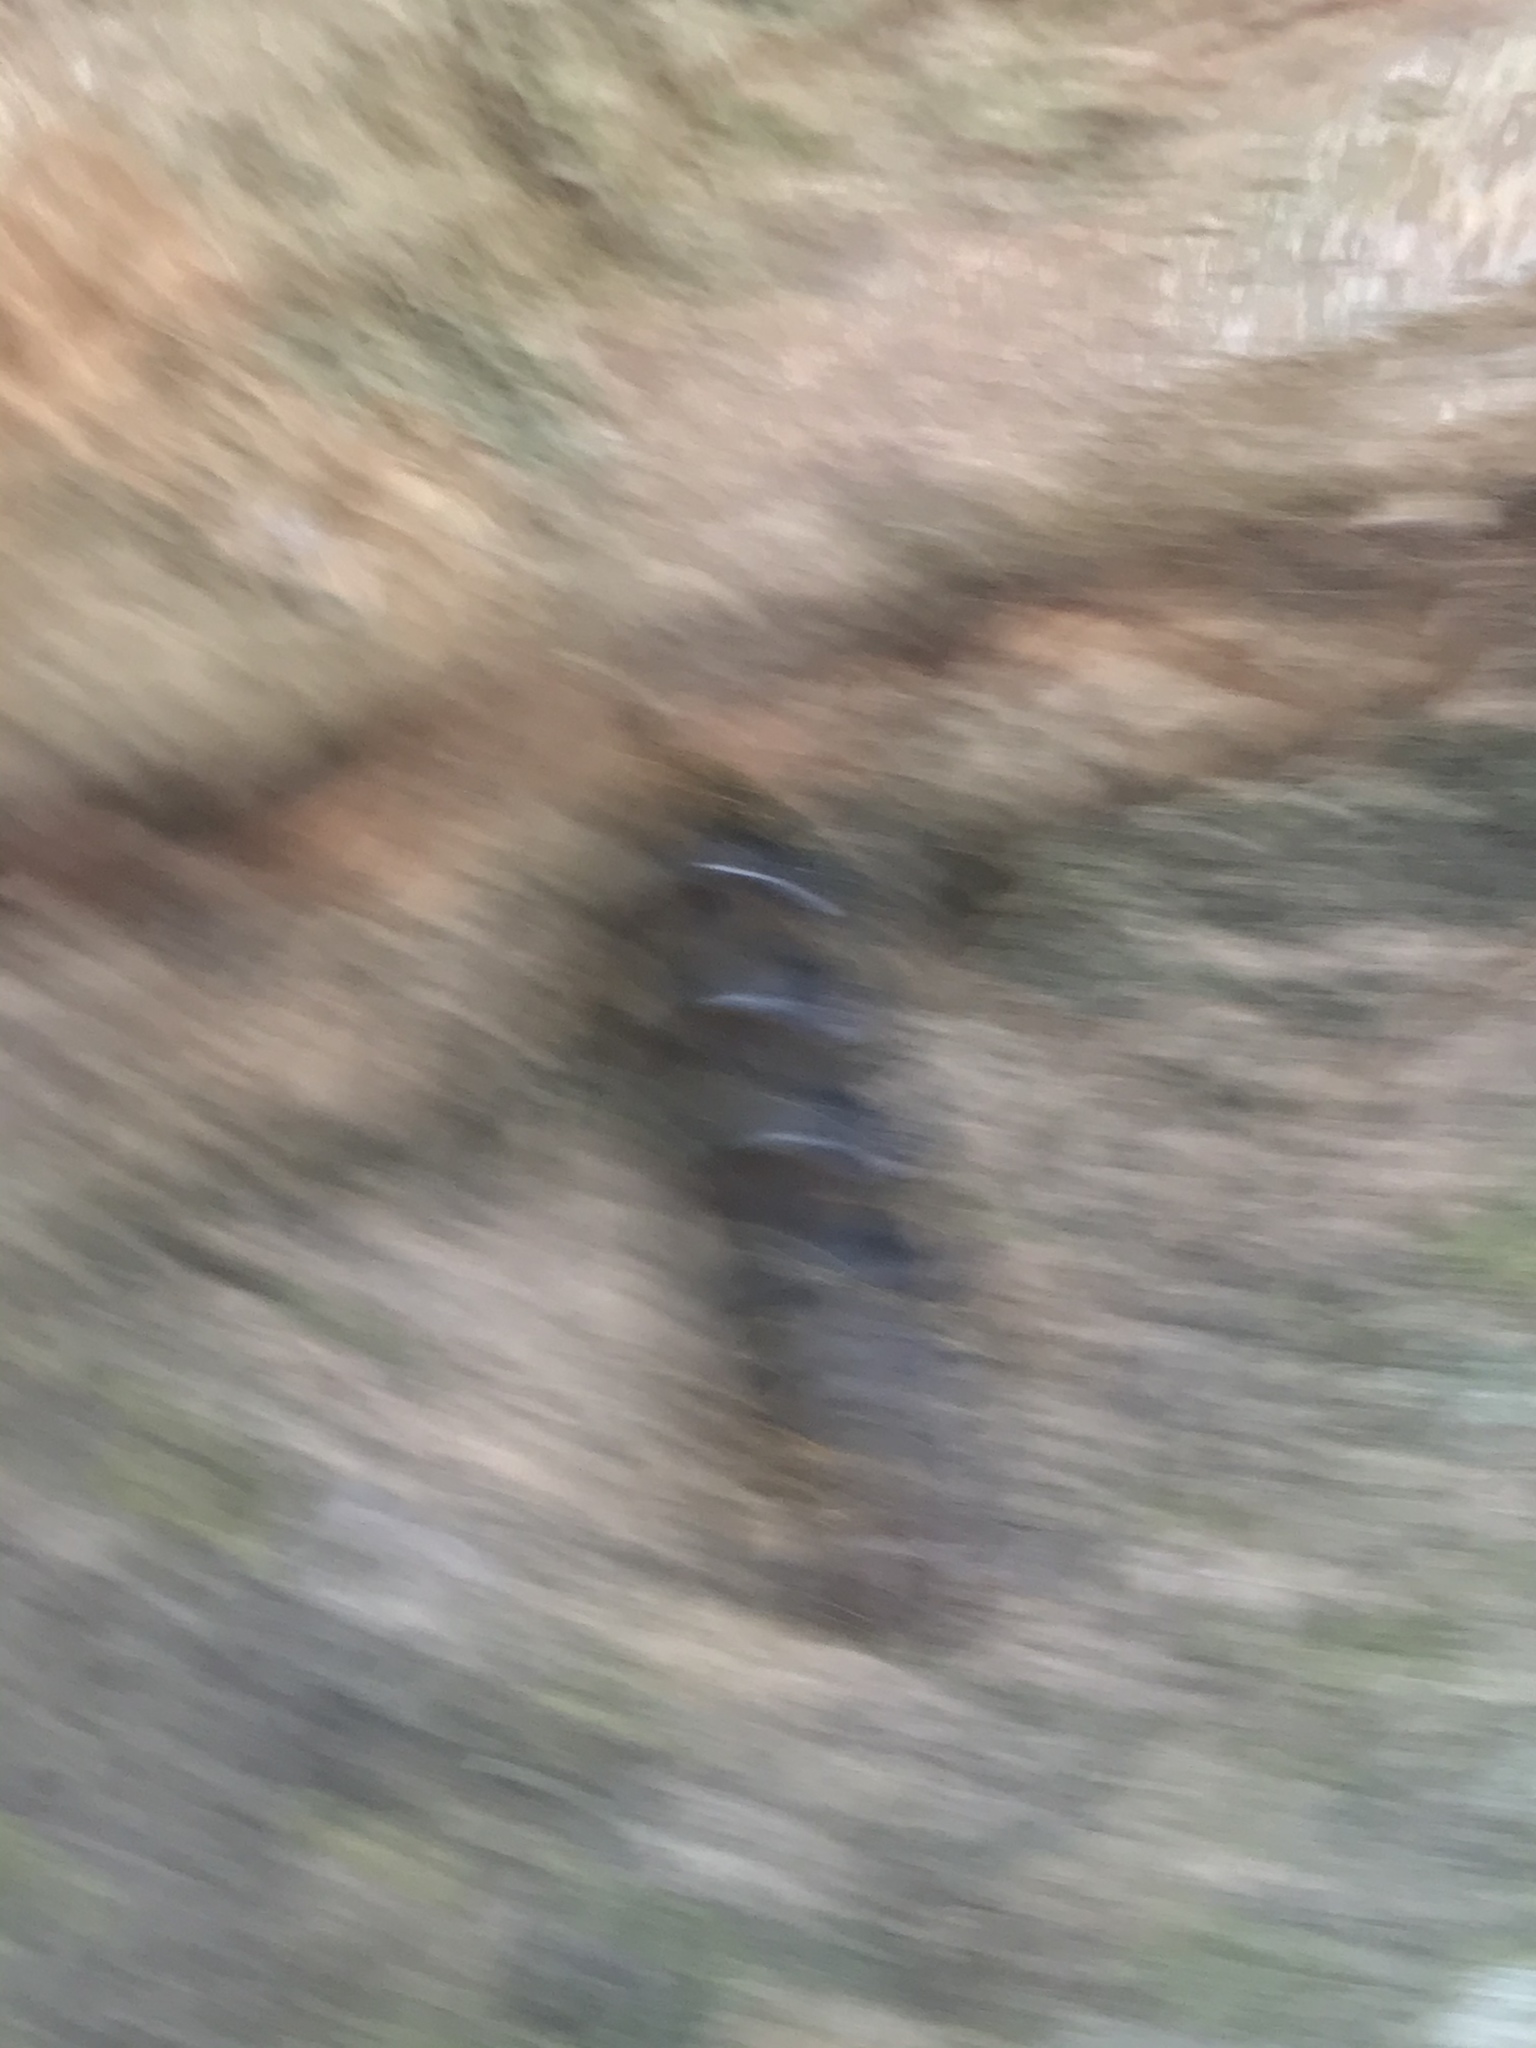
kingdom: Animalia
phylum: Arthropoda
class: Insecta
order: Lepidoptera
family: Erebidae
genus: Lymantria
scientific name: Lymantria dispar
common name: Gypsy moth
